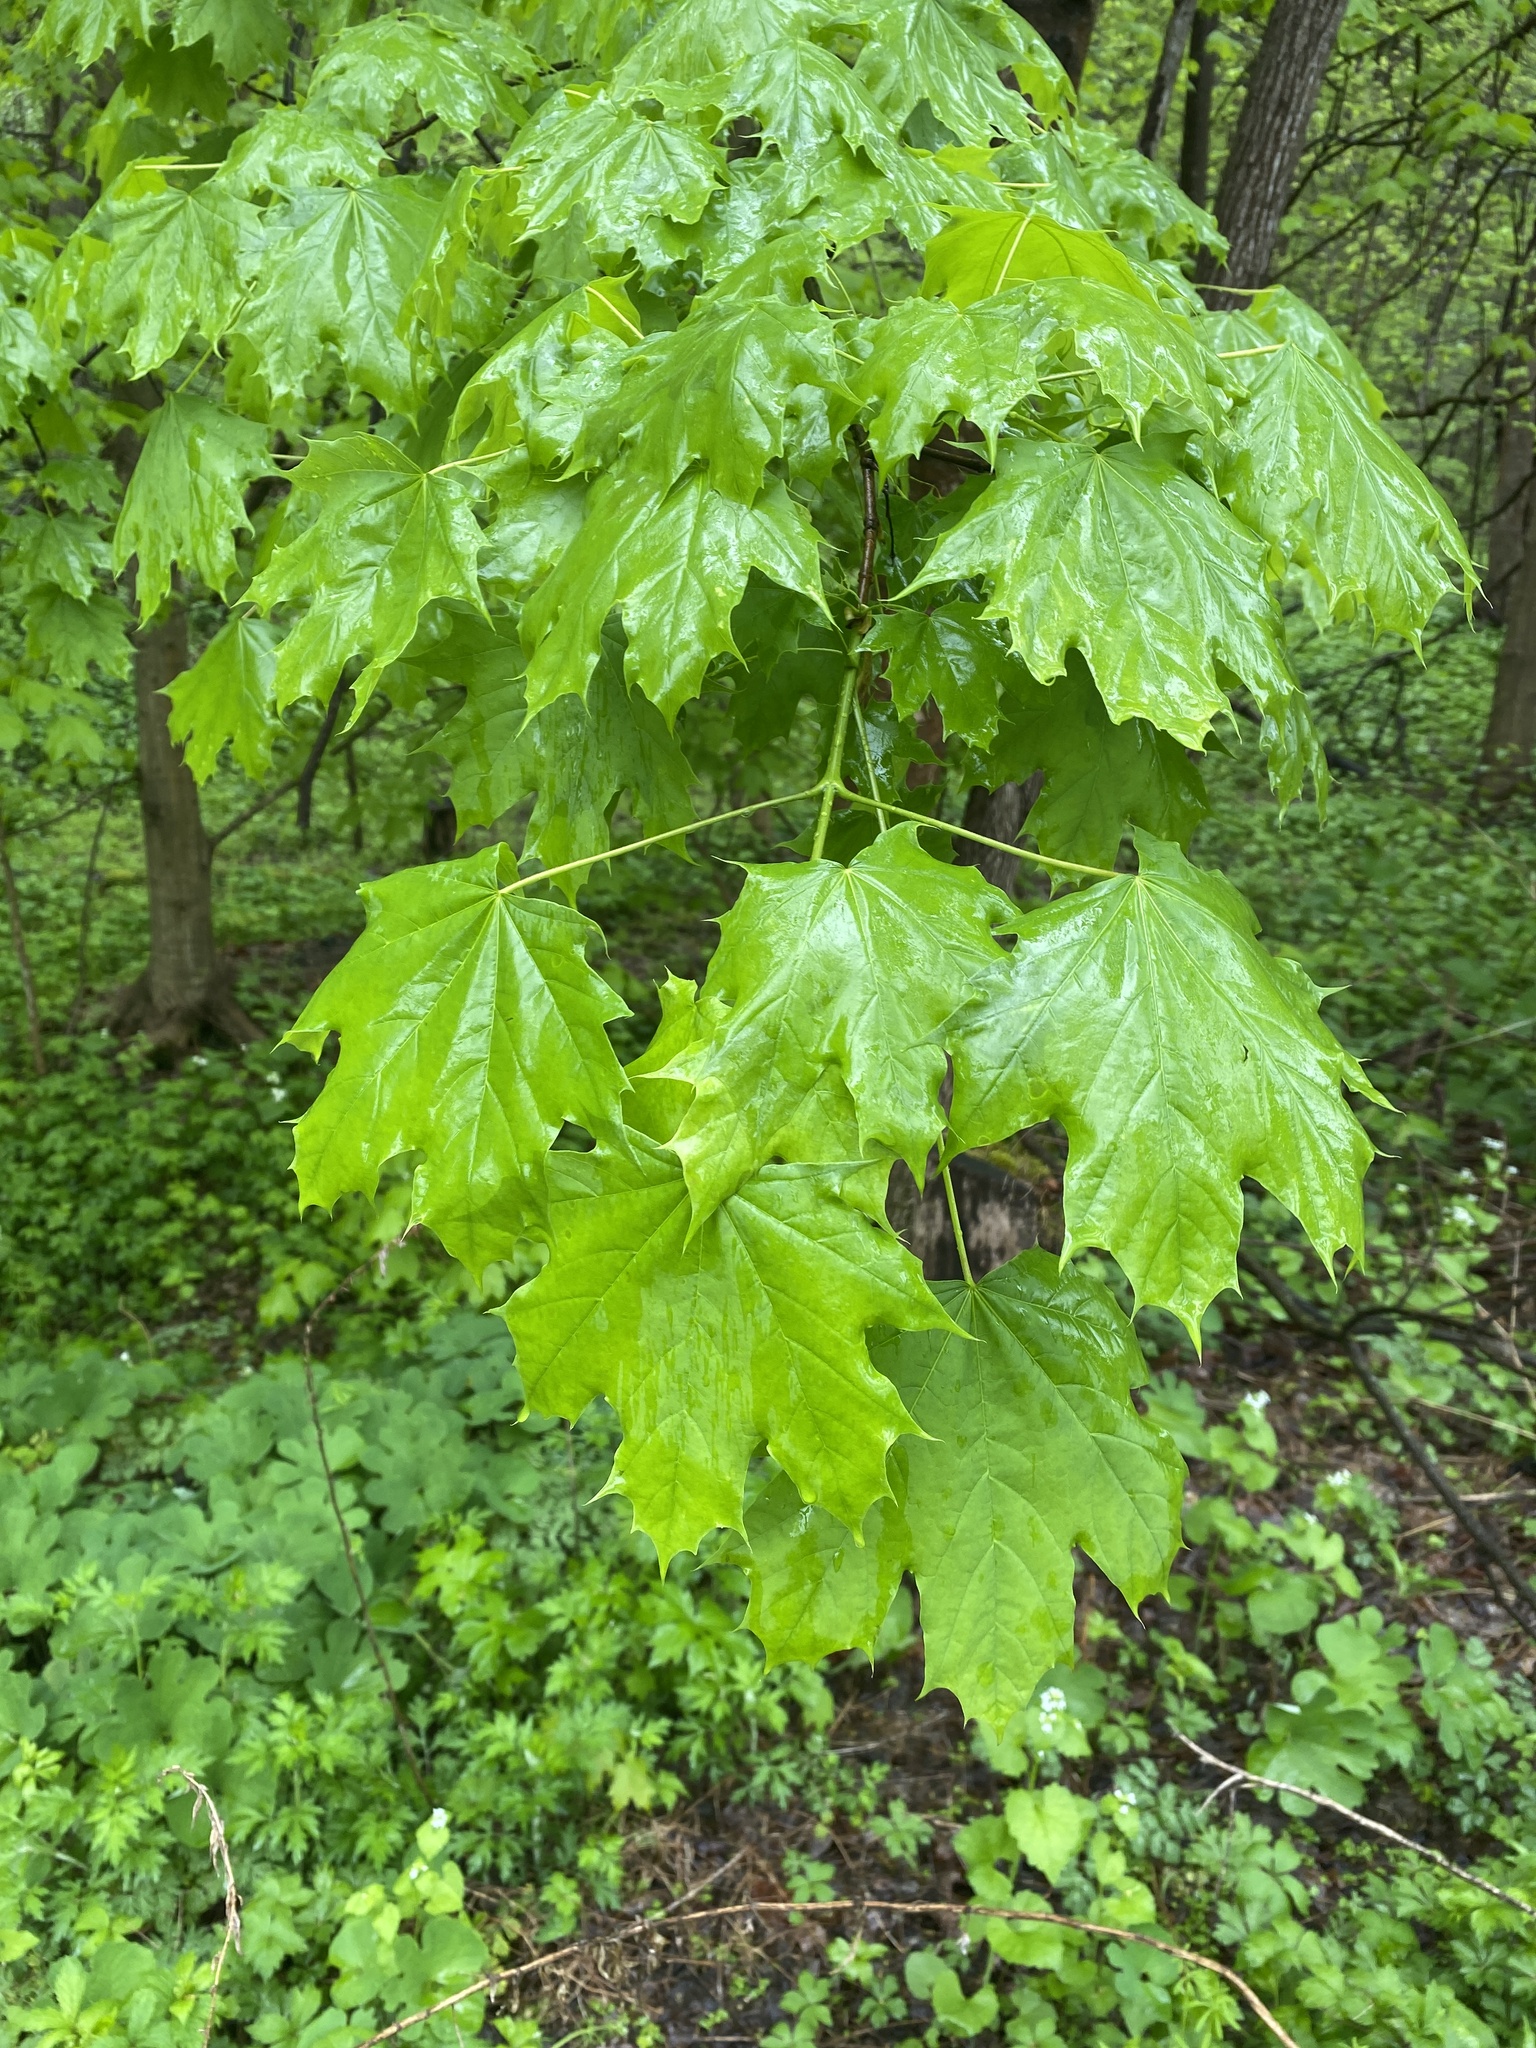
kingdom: Plantae
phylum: Tracheophyta
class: Magnoliopsida
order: Sapindales
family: Sapindaceae
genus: Acer
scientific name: Acer platanoides
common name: Norway maple
